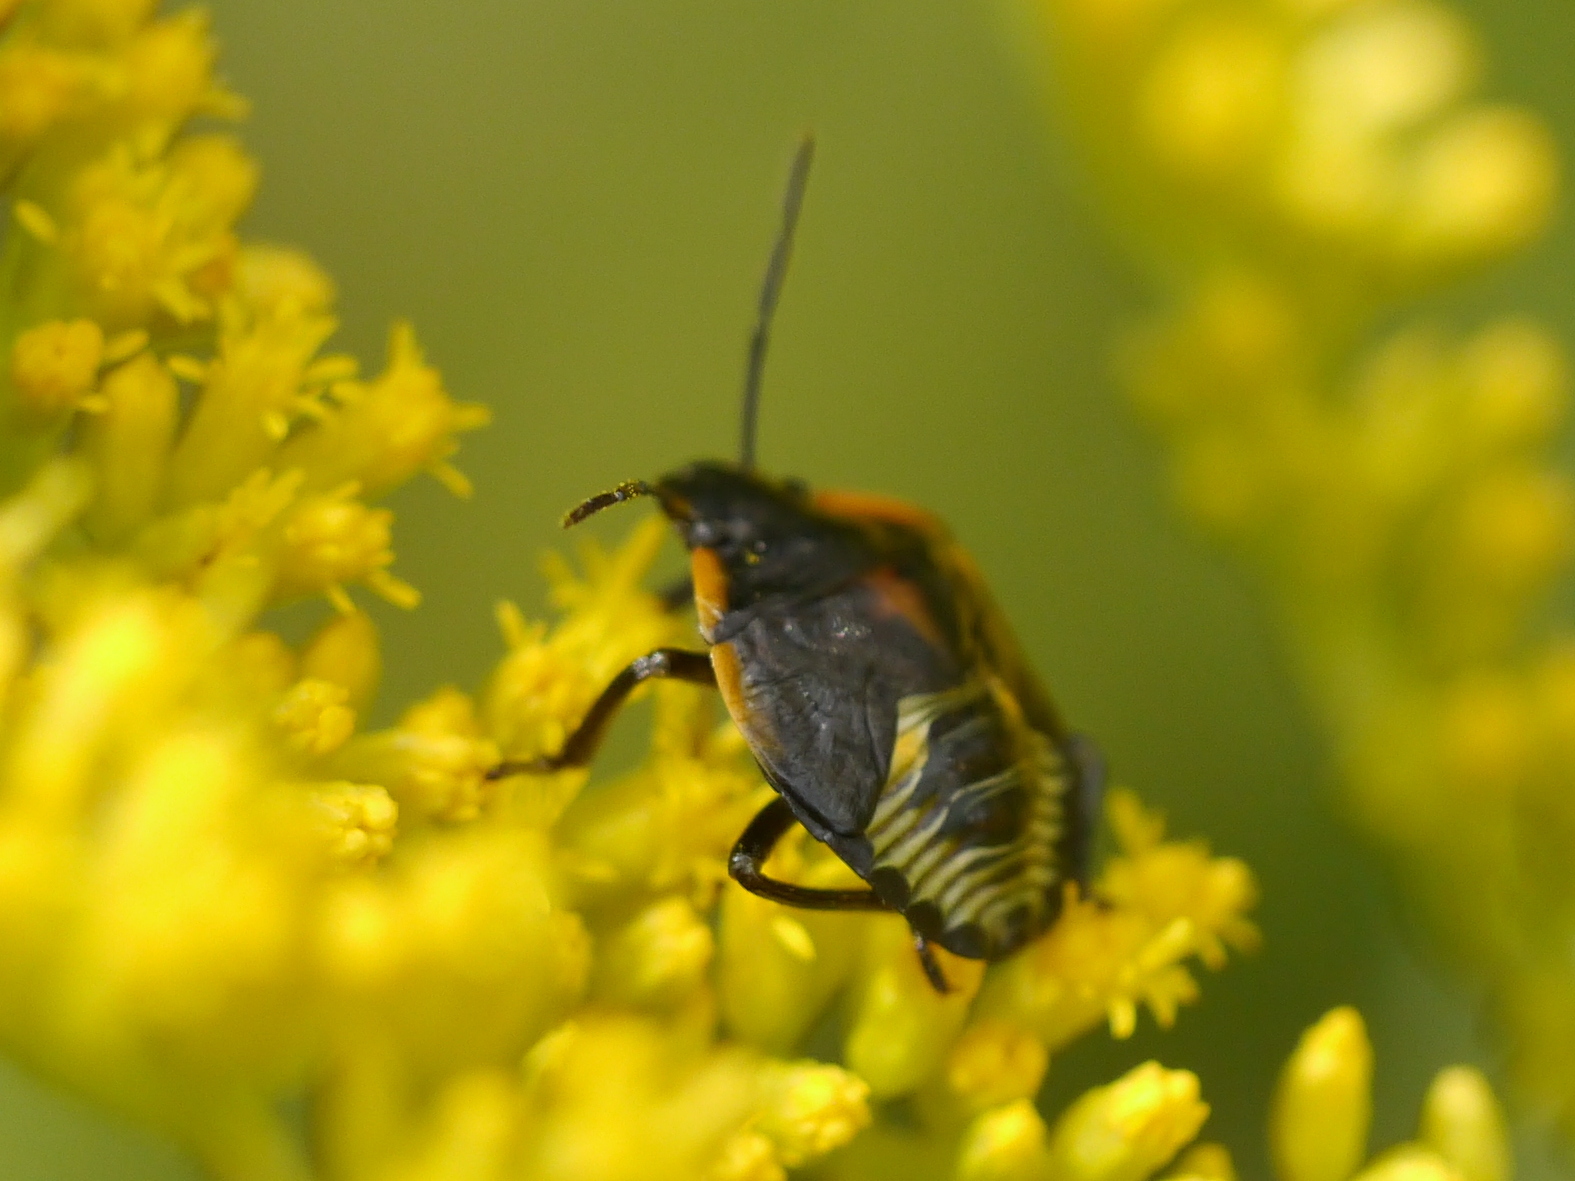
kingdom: Animalia
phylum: Arthropoda
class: Insecta
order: Hemiptera
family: Pentatomidae
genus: Chinavia
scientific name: Chinavia hilaris
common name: Green stink bug
